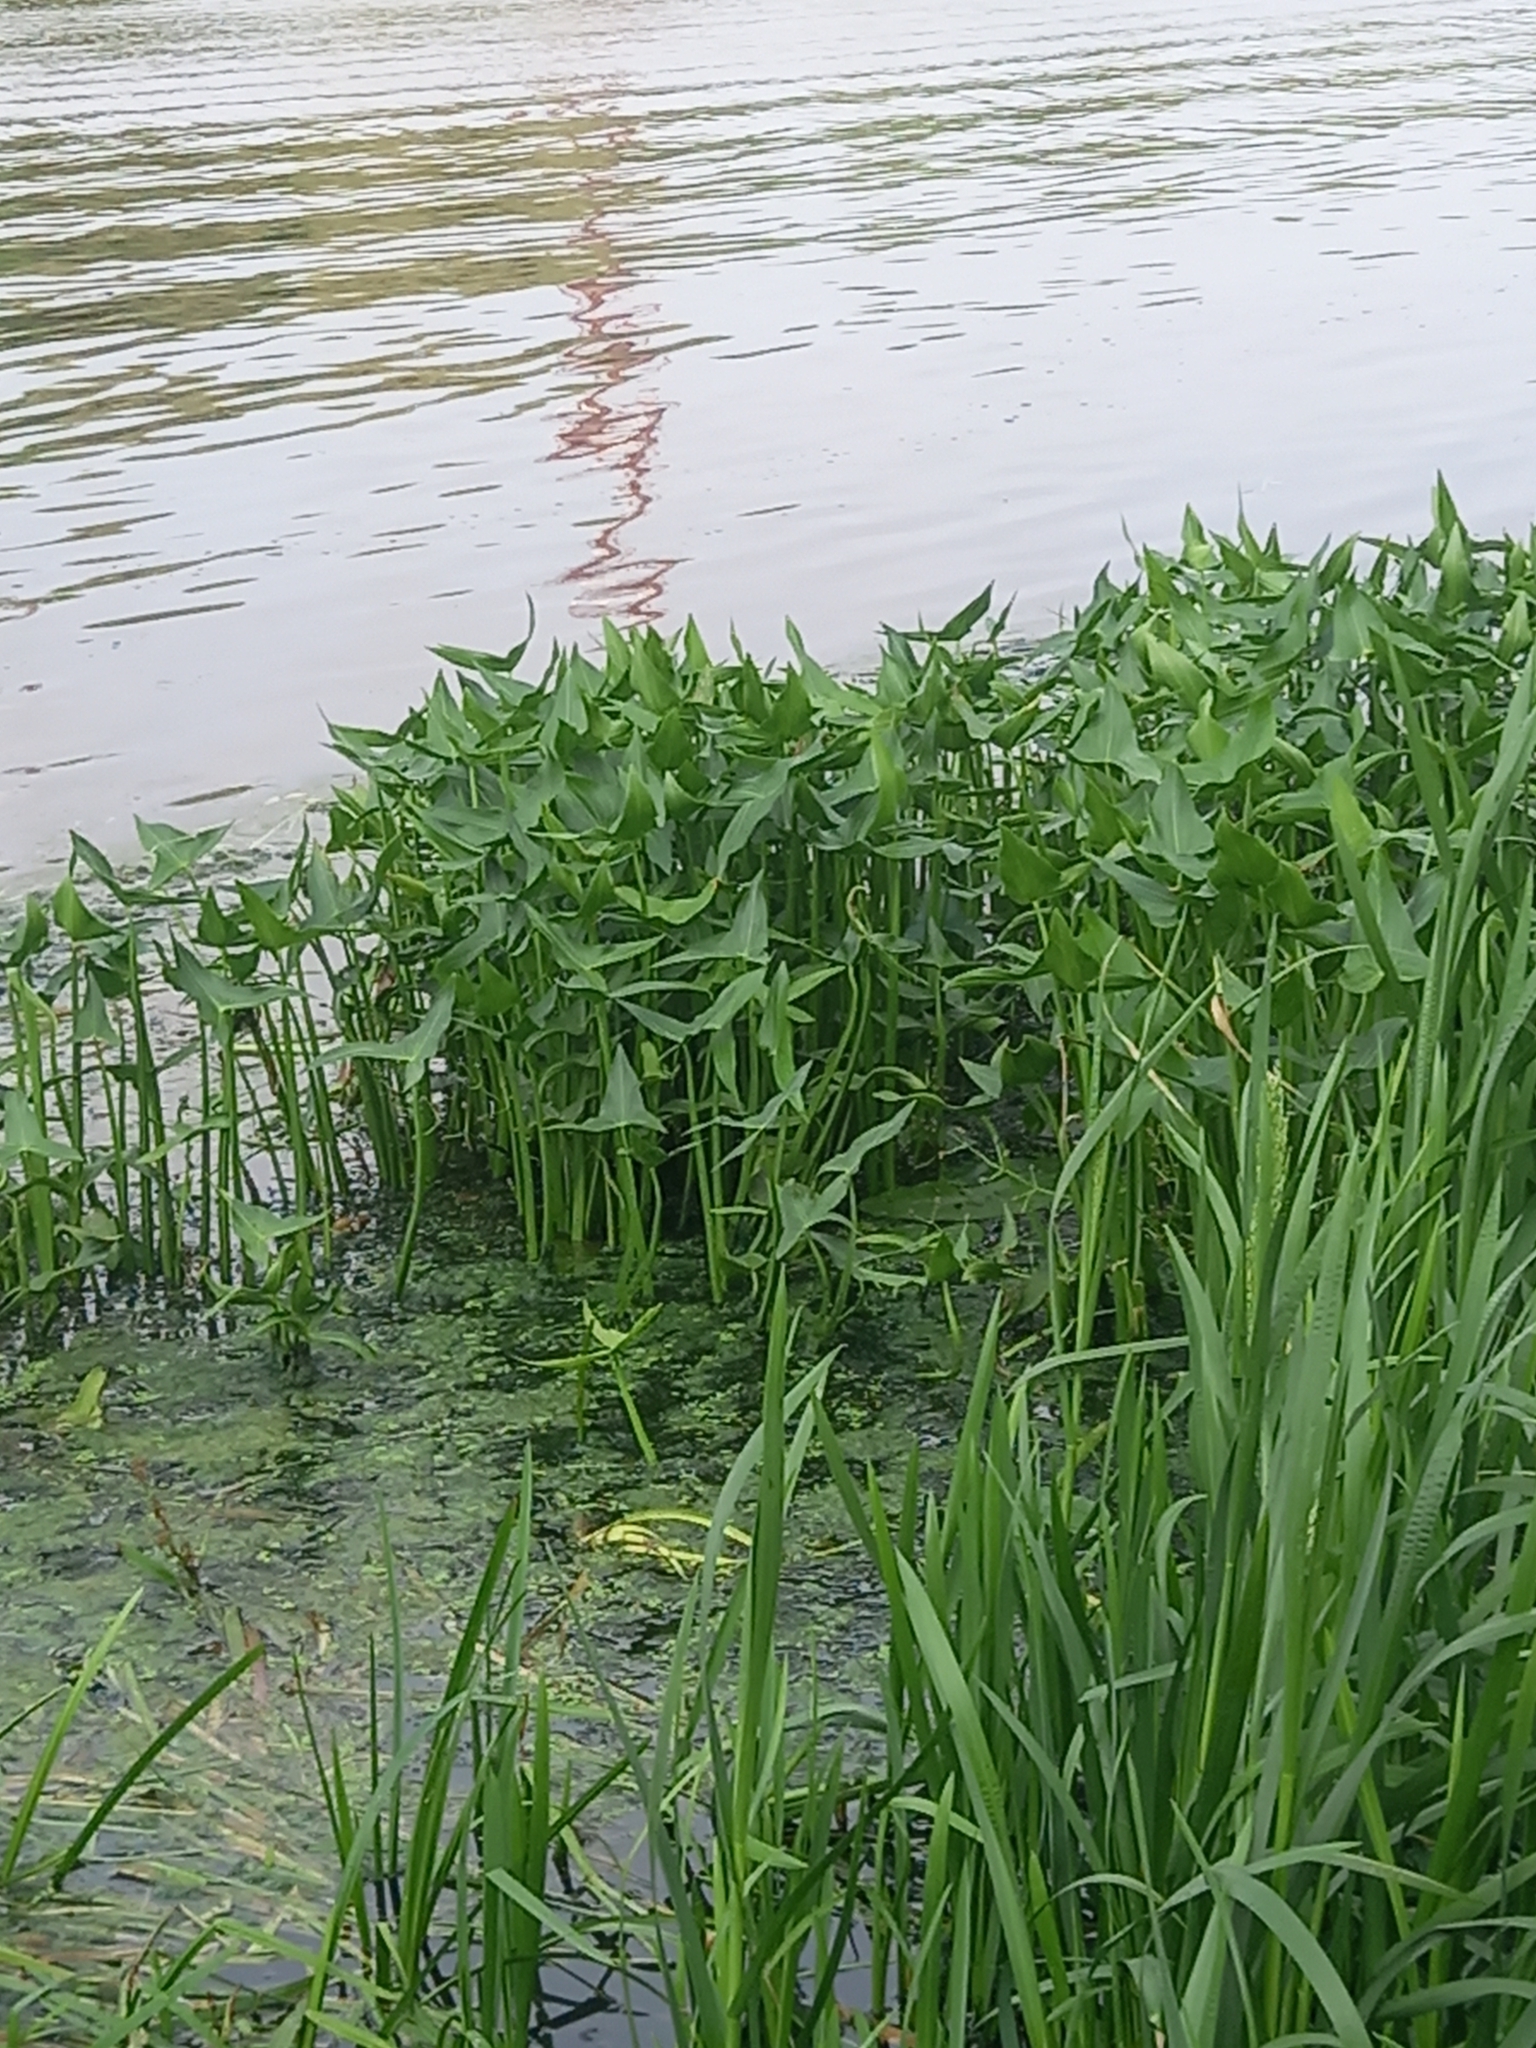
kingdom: Plantae
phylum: Tracheophyta
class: Liliopsida
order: Alismatales
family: Alismataceae
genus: Sagittaria
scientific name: Sagittaria sagittifolia
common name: Arrowhead
